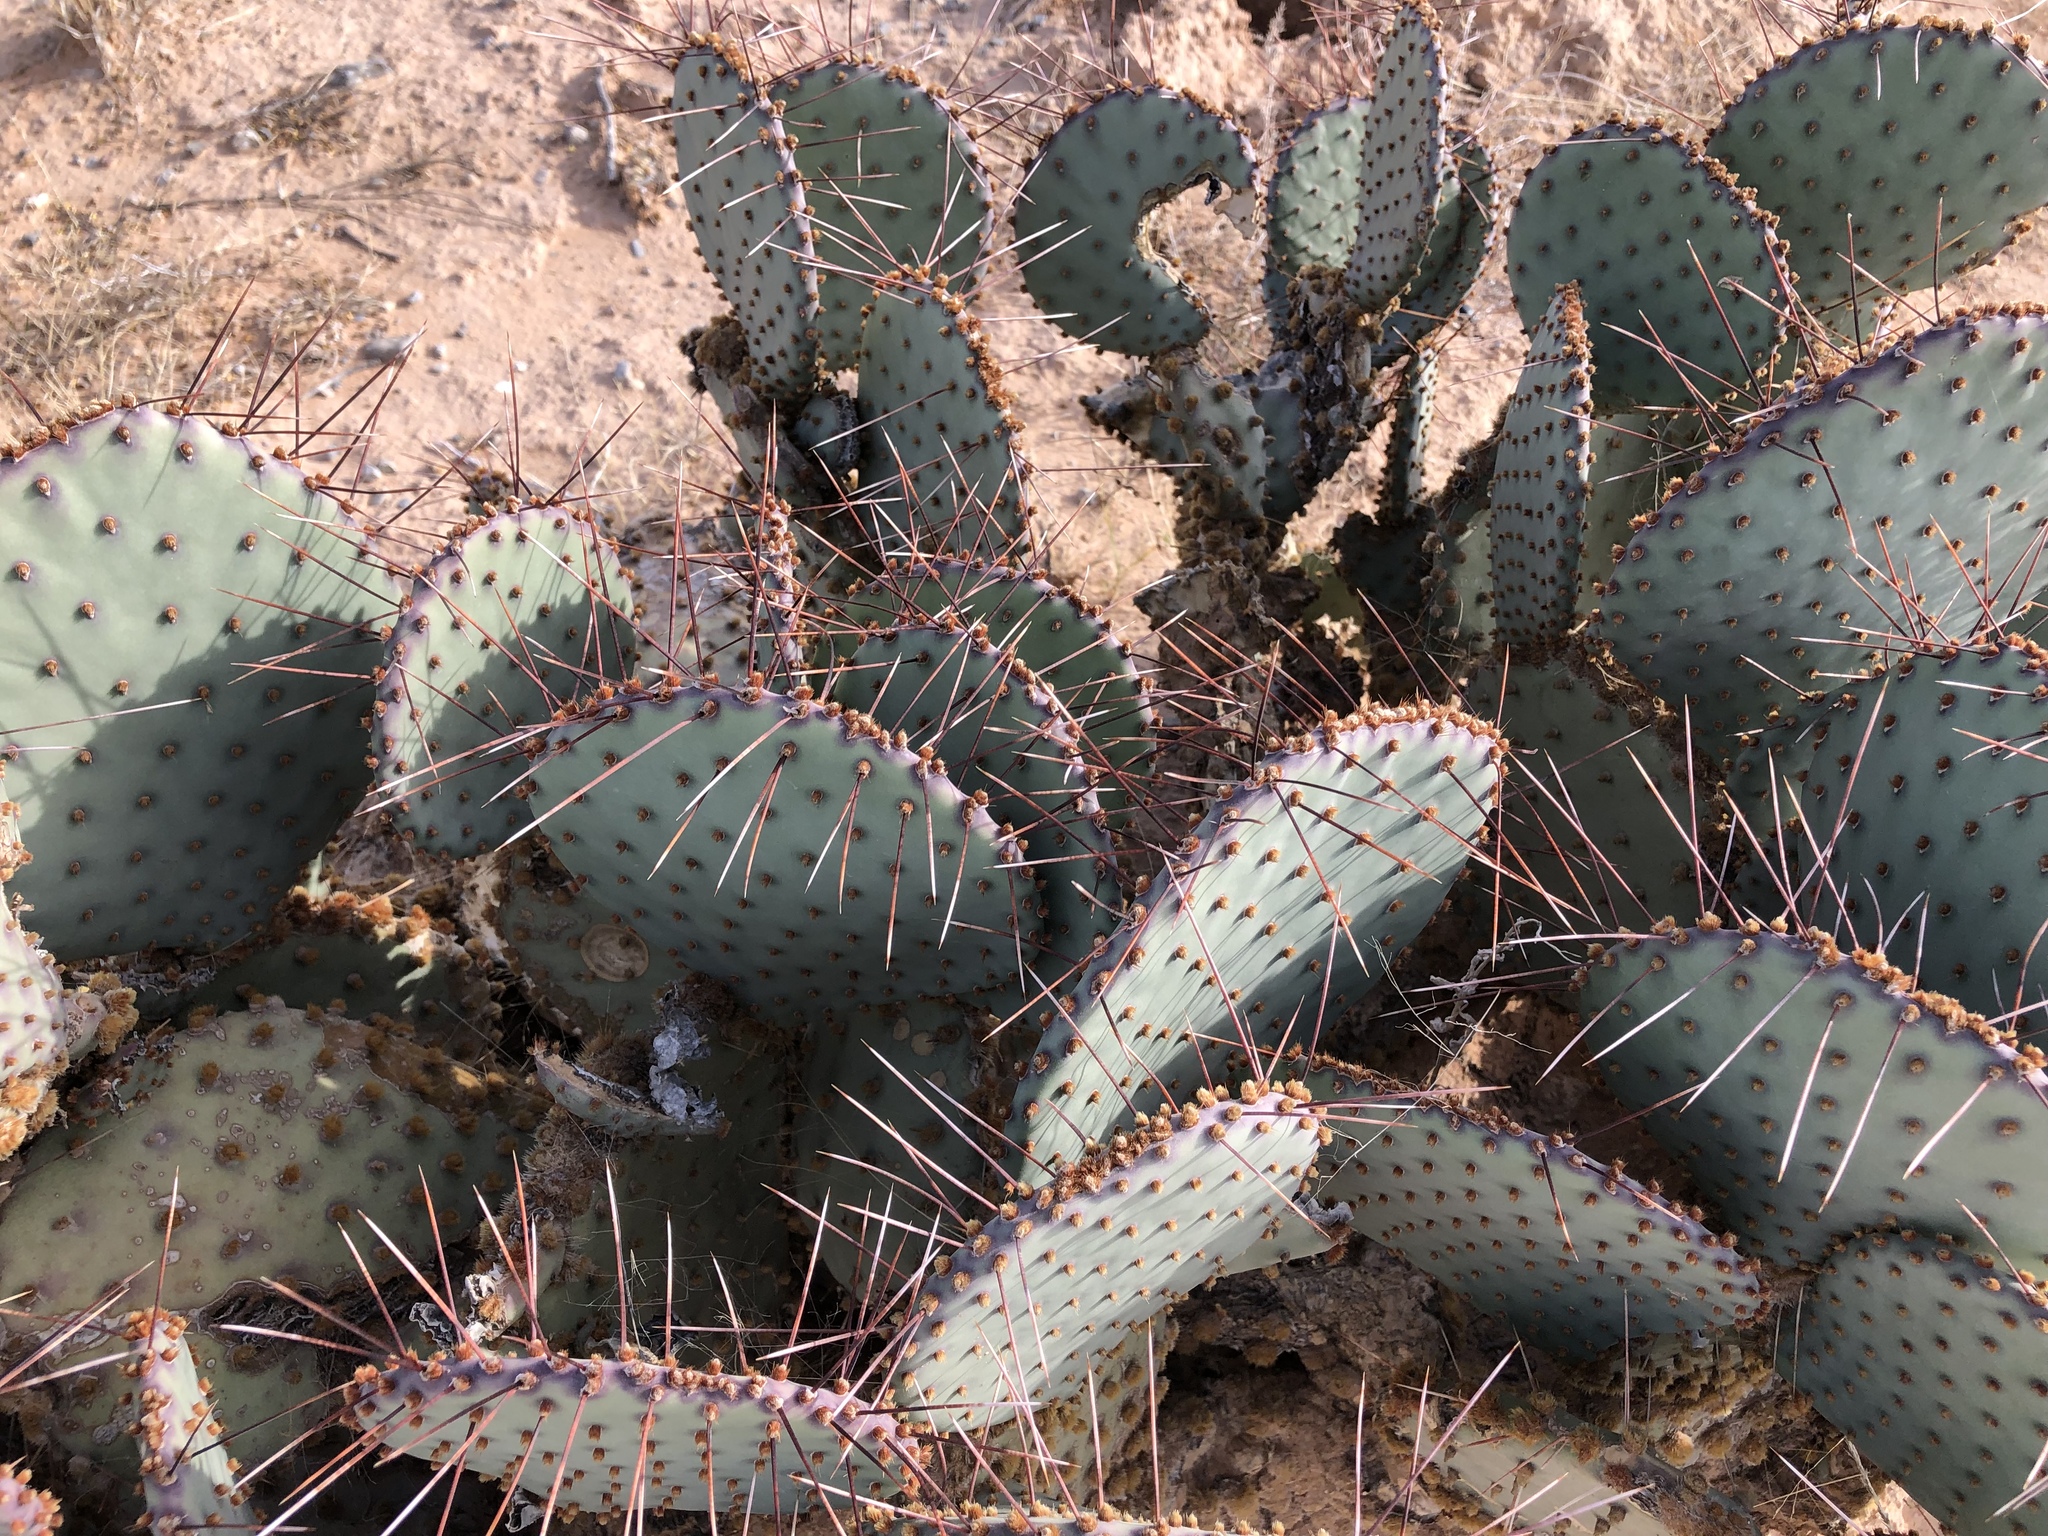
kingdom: Plantae
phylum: Tracheophyta
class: Magnoliopsida
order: Caryophyllales
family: Cactaceae
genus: Opuntia
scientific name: Opuntia macrocentra
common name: Purple prickly-pear
